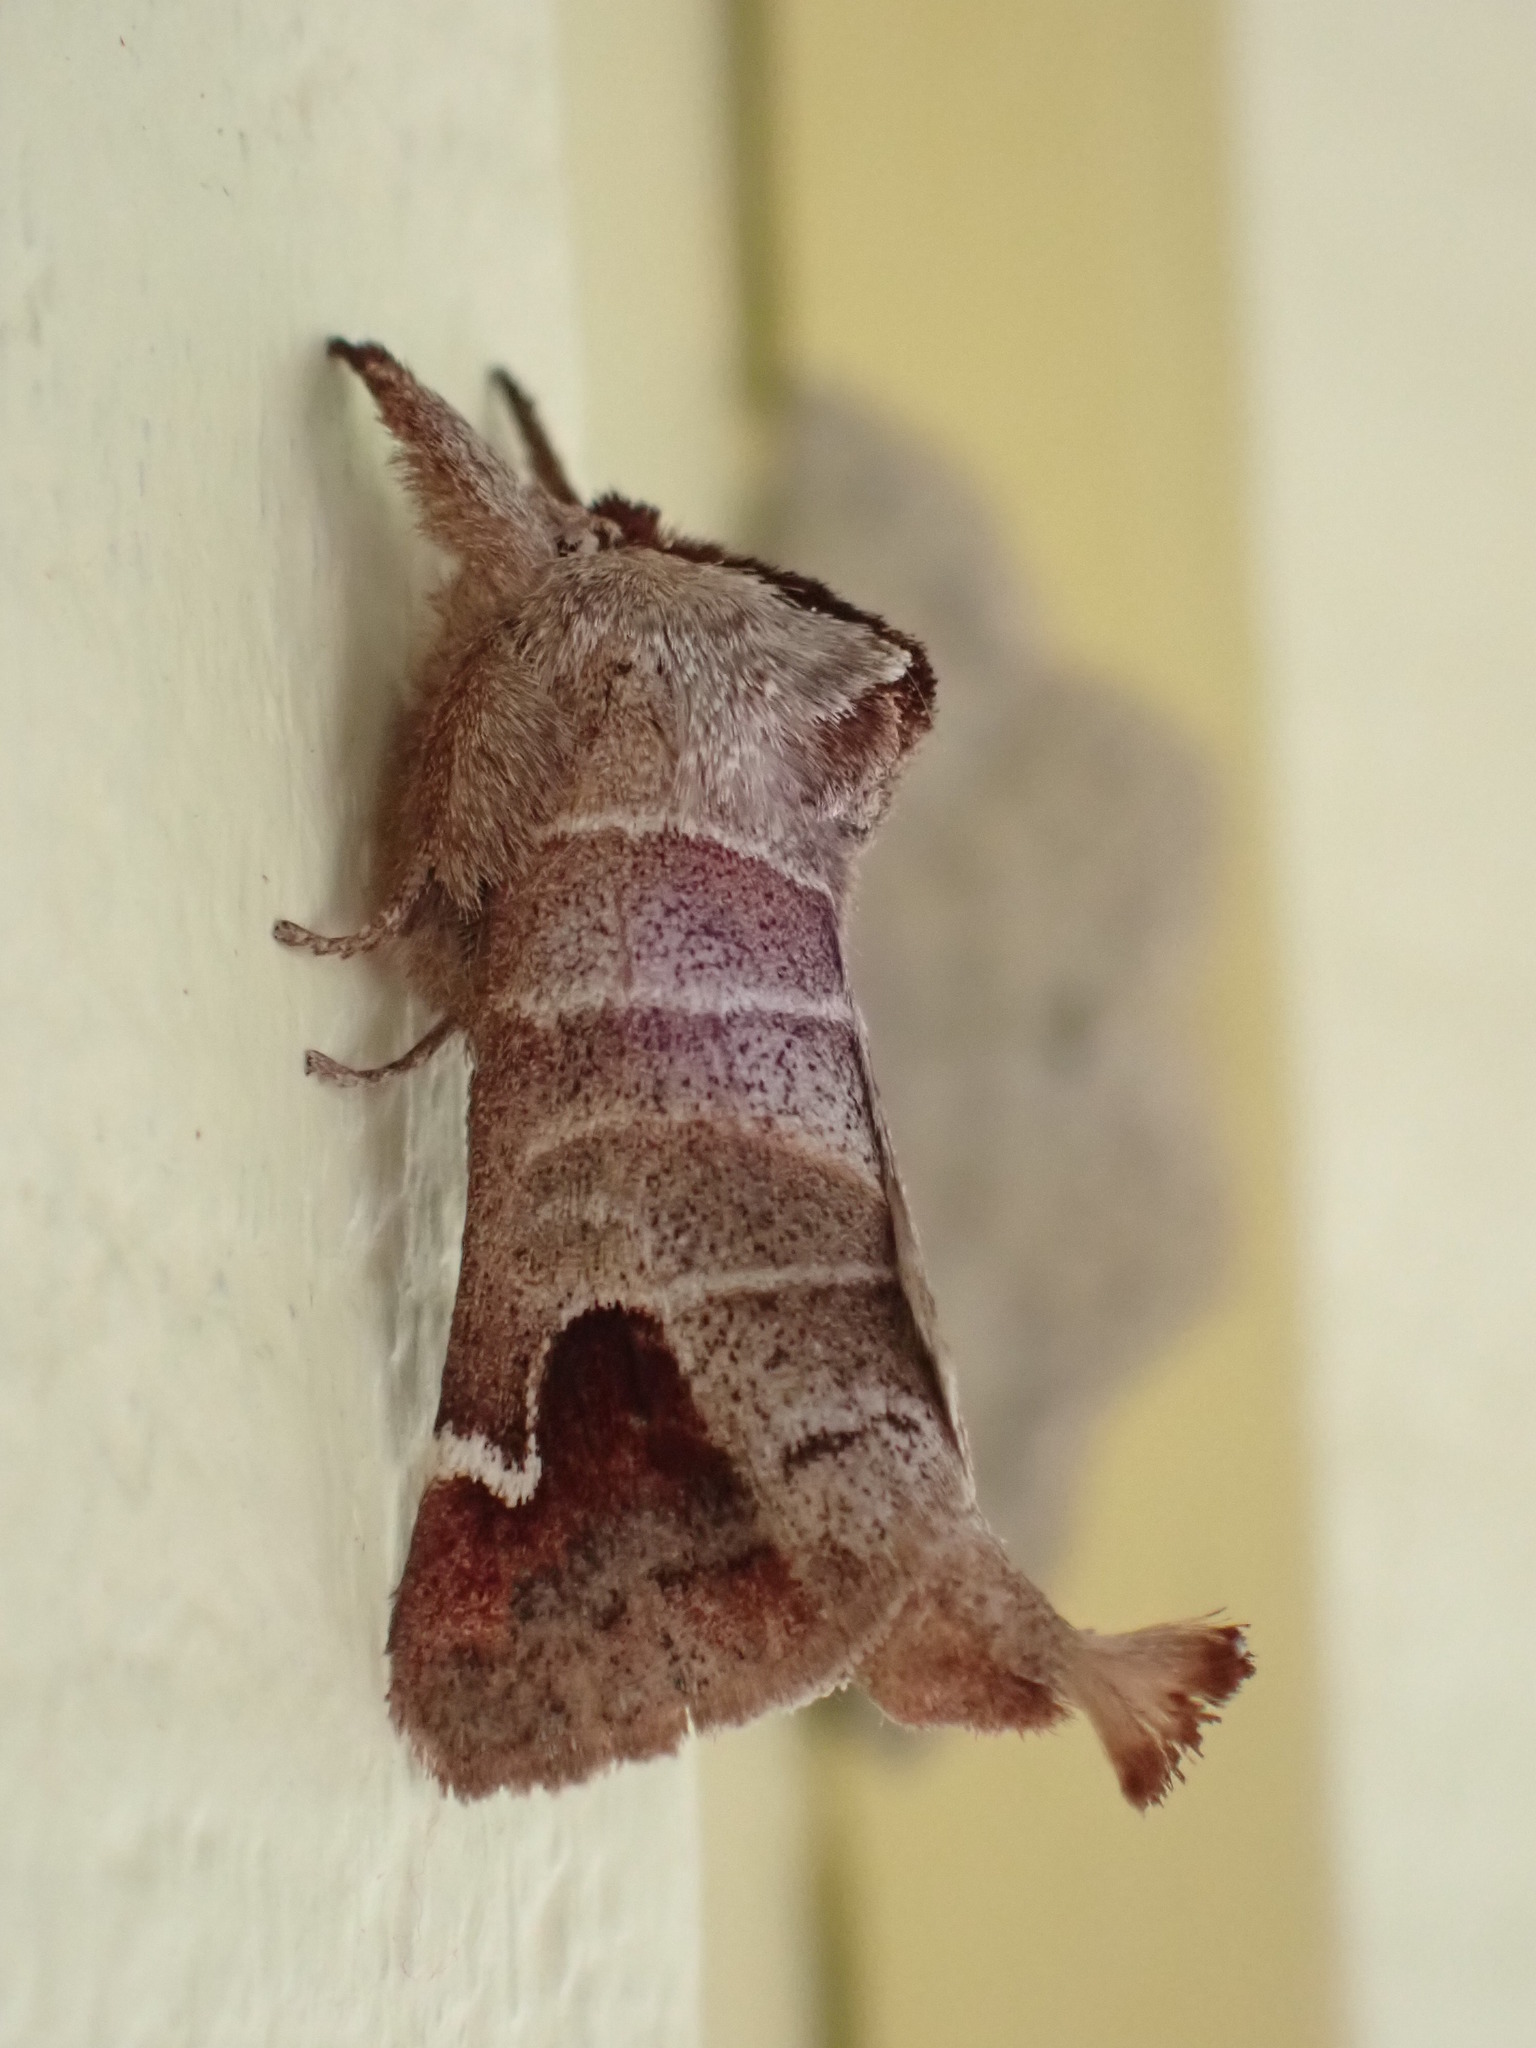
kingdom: Animalia
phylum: Arthropoda
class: Insecta
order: Lepidoptera
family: Notodontidae
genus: Clostera
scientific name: Clostera albosigma
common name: Sigmoid prominent
